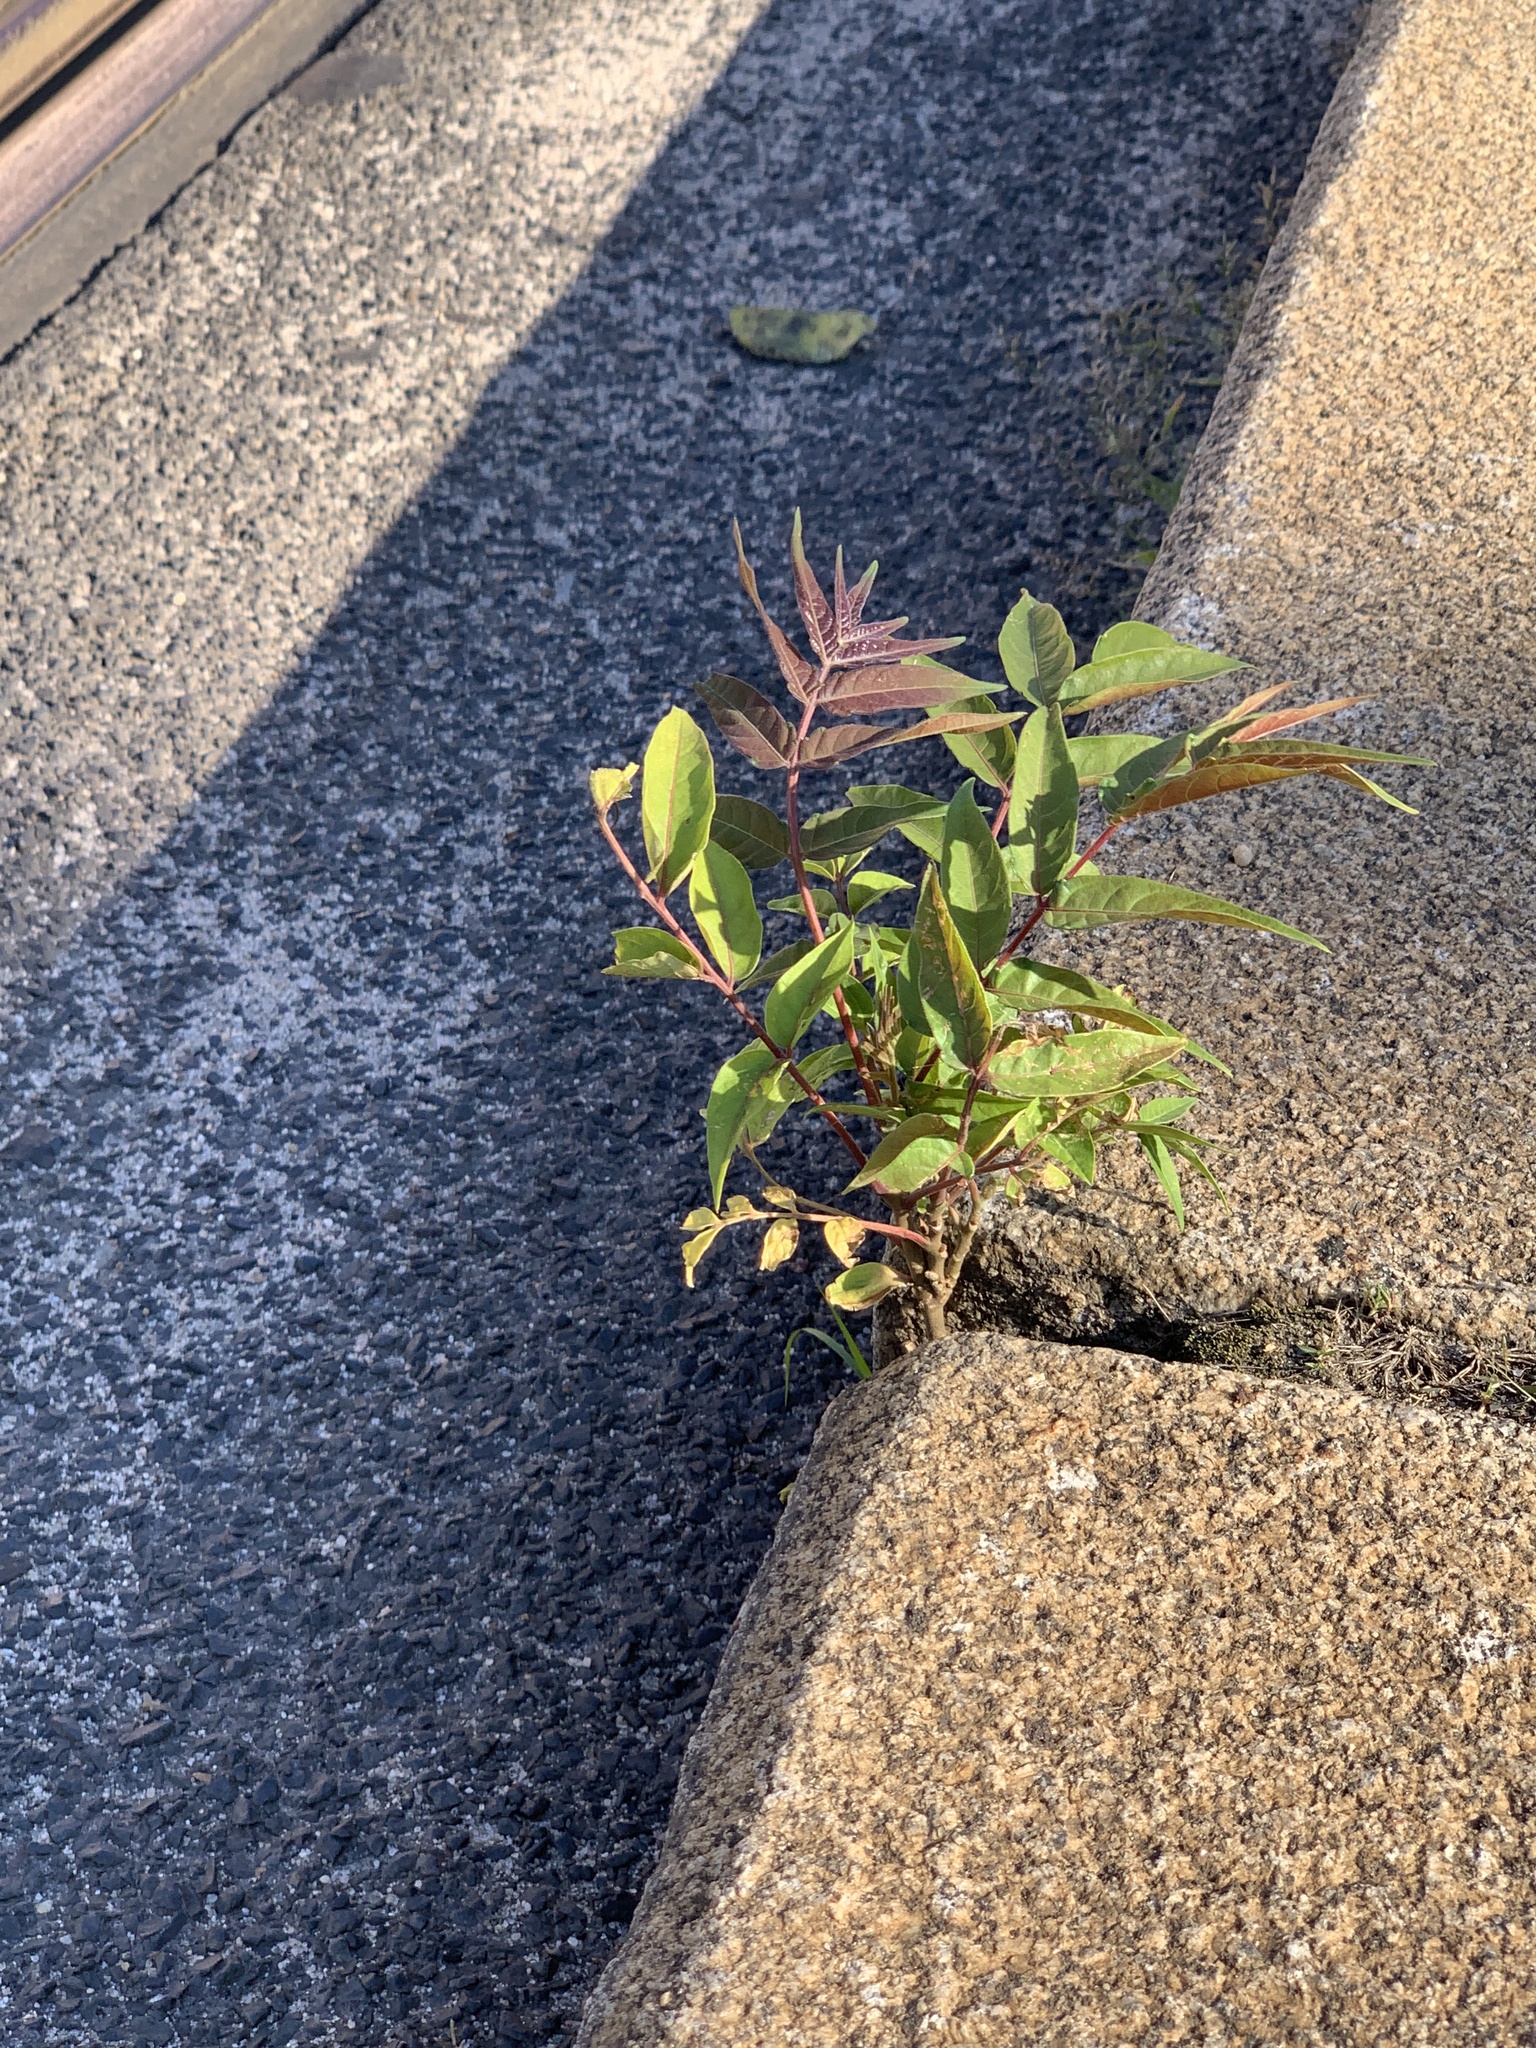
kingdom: Plantae
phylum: Tracheophyta
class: Magnoliopsida
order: Sapindales
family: Simaroubaceae
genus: Ailanthus
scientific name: Ailanthus altissima
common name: Tree-of-heaven
